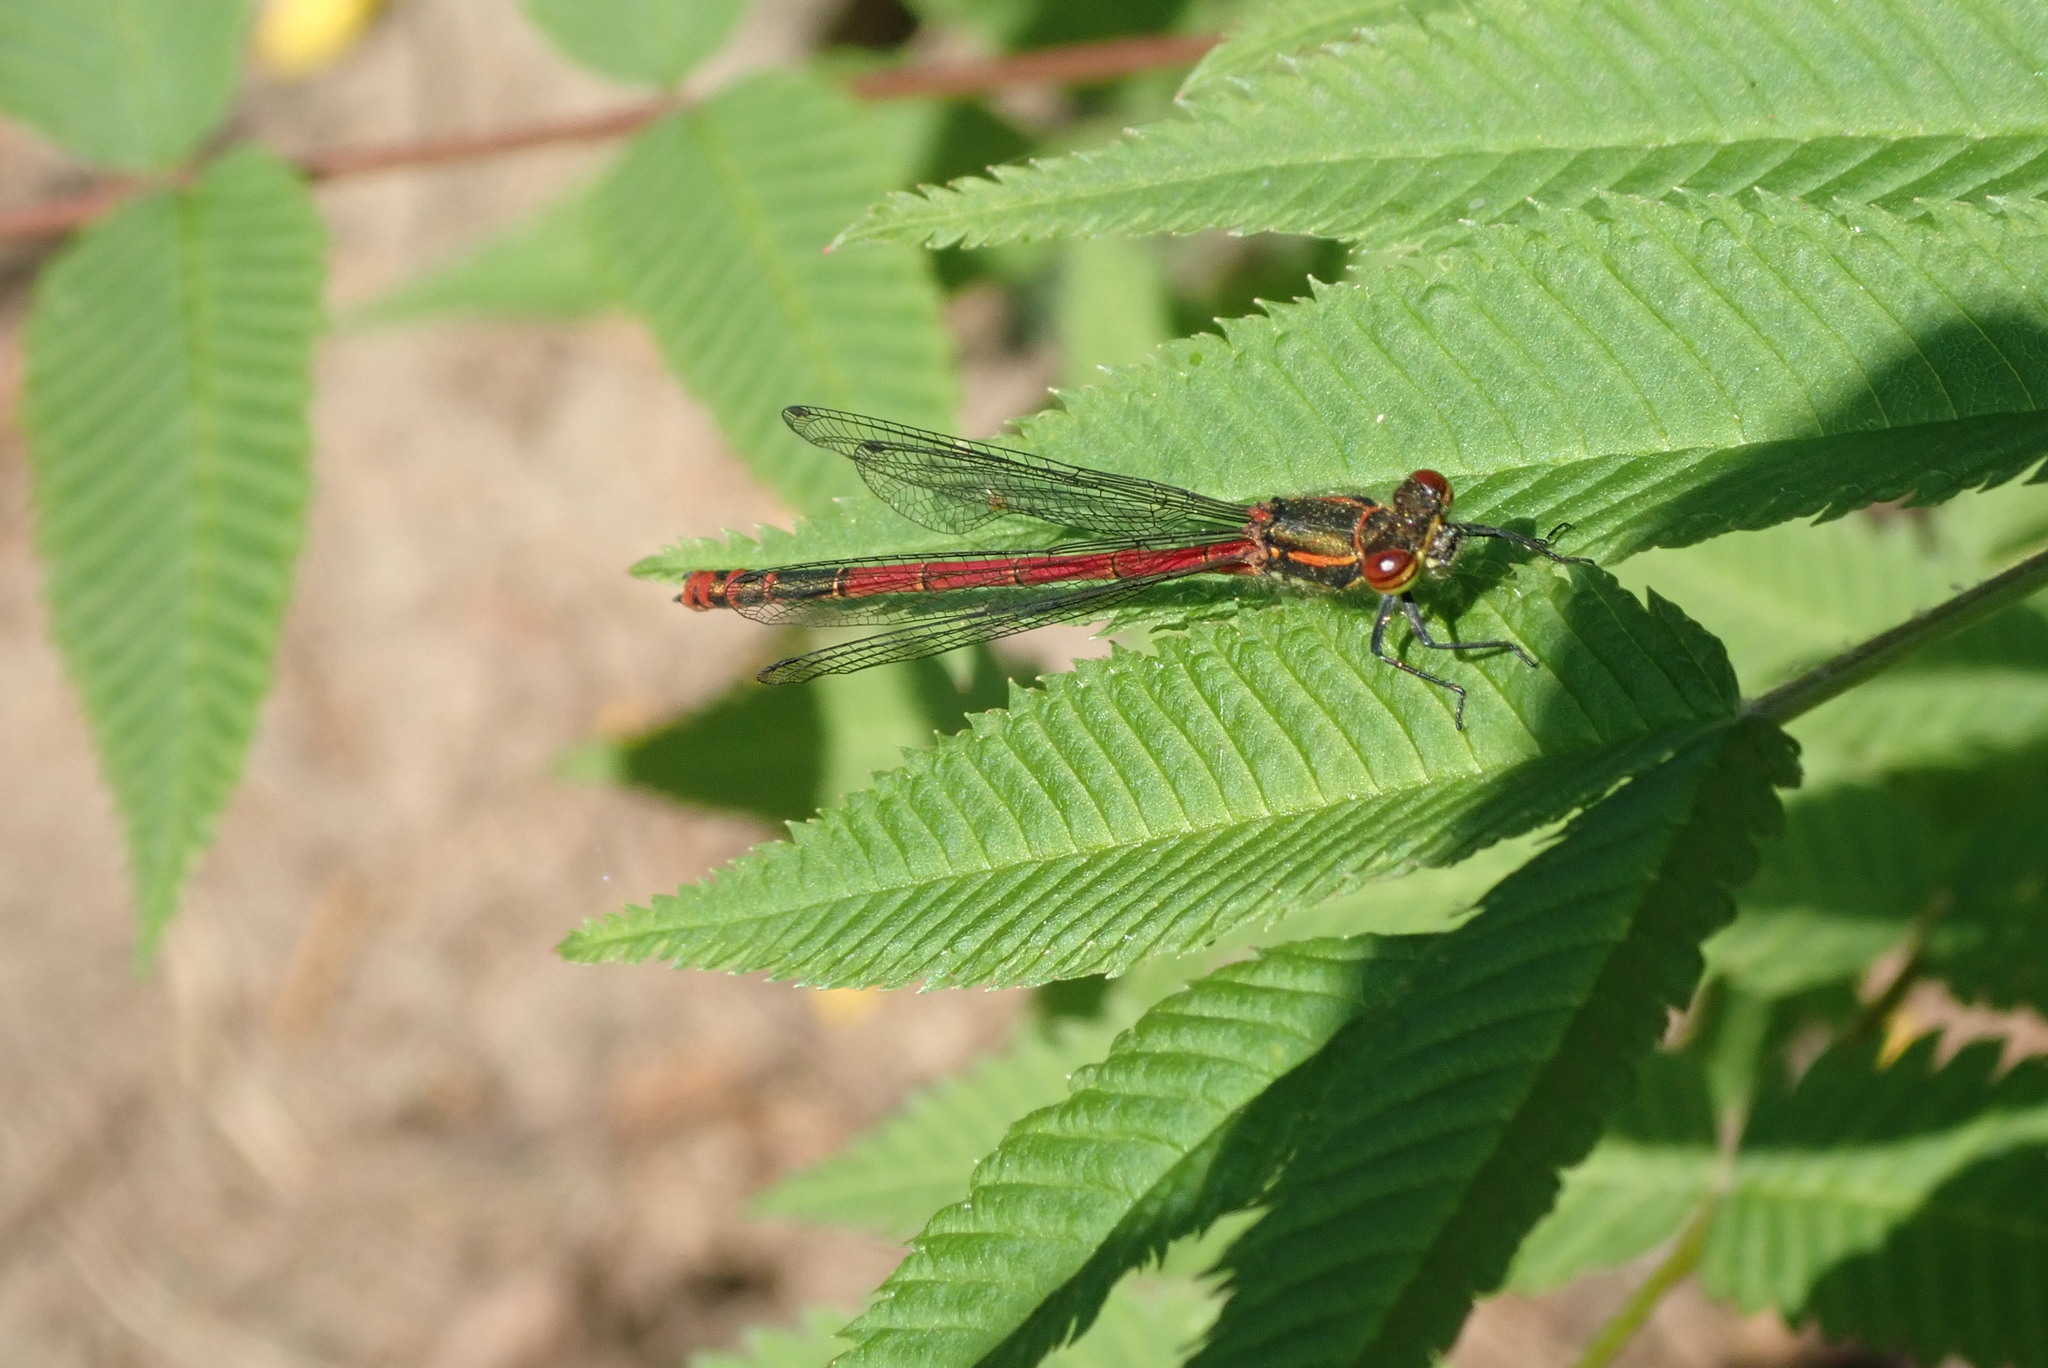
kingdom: Animalia
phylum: Arthropoda
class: Insecta
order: Odonata
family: Coenagrionidae
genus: Pyrrhosoma
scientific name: Pyrrhosoma nymphula
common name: Large red damsel
